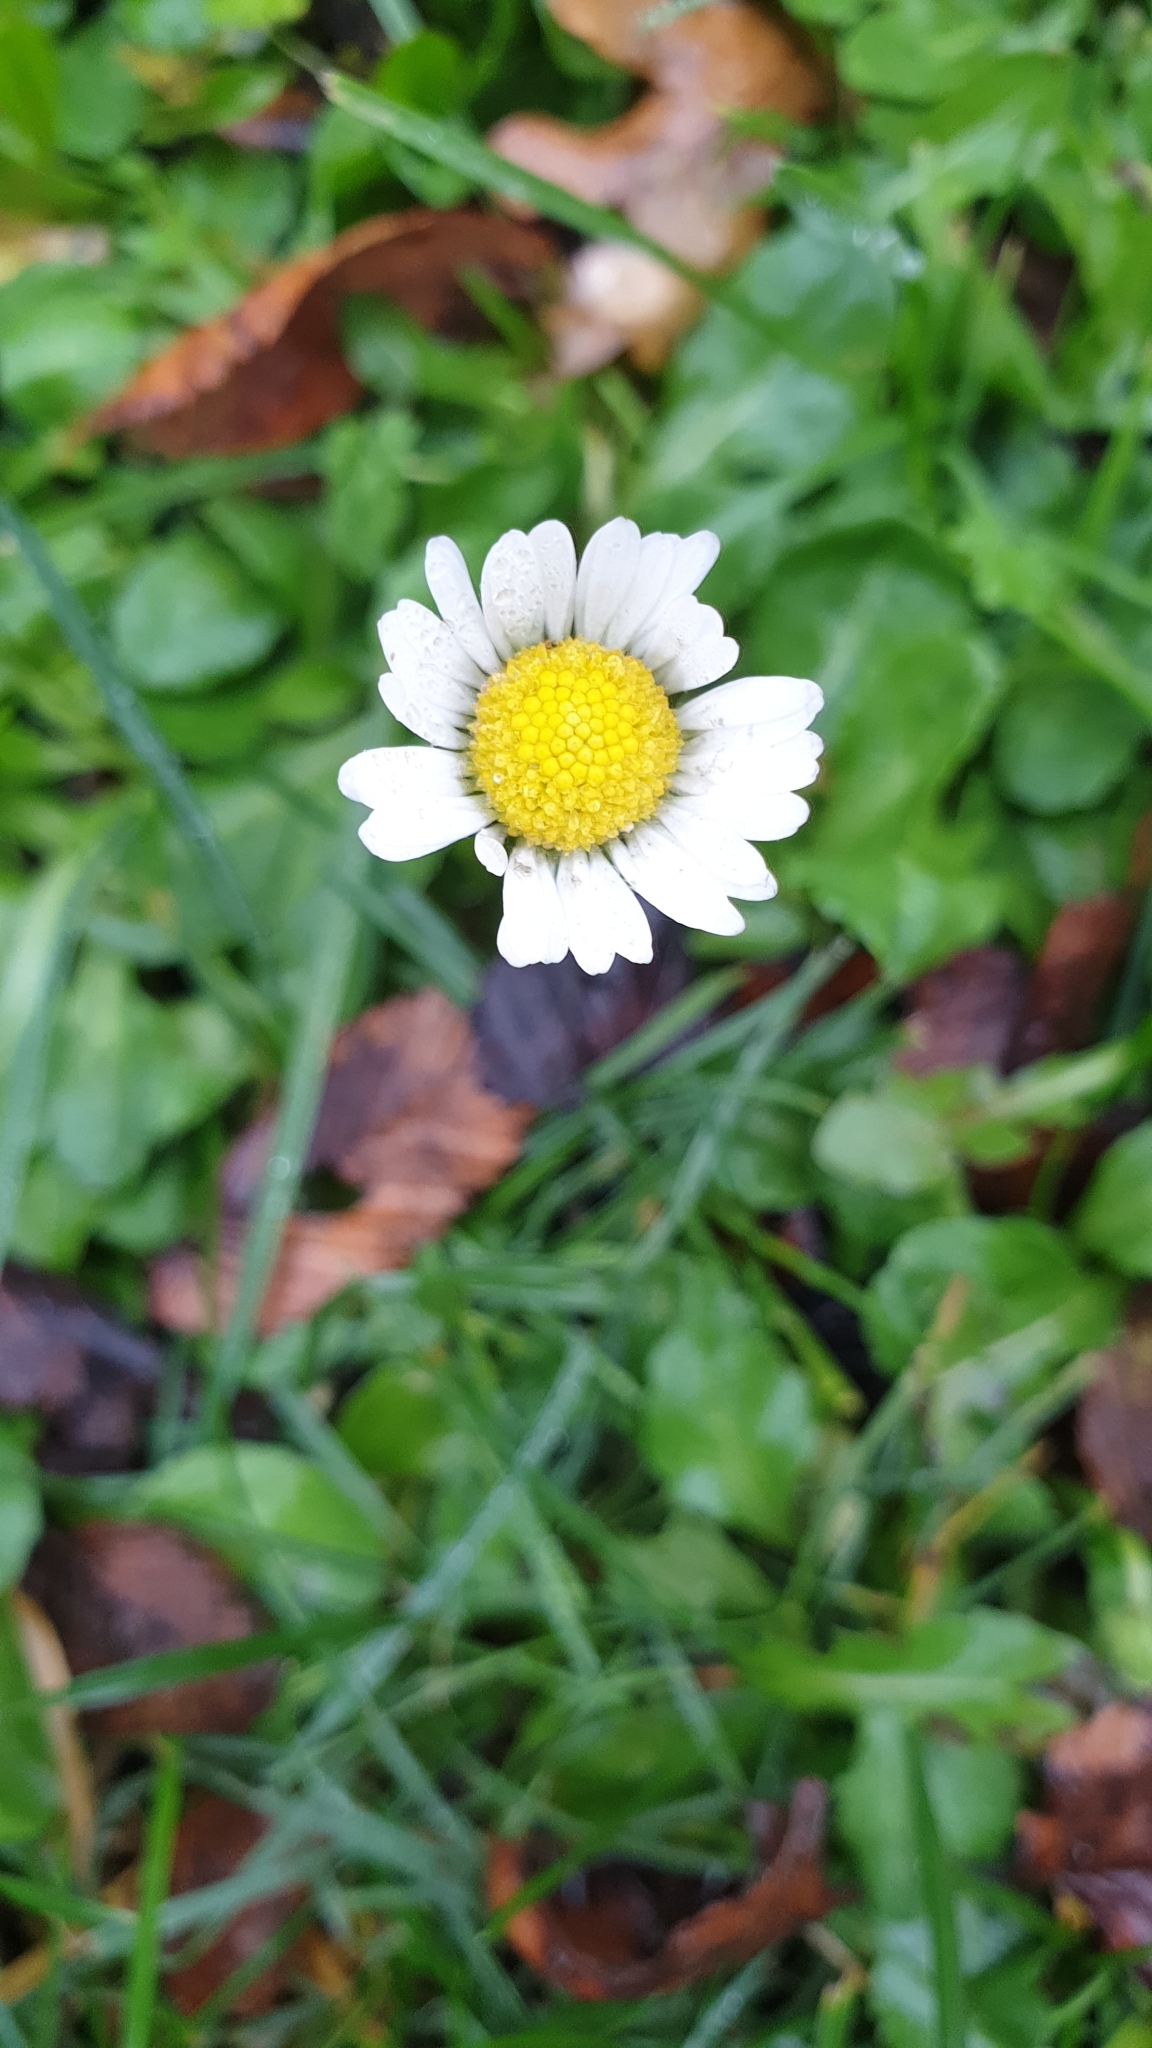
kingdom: Plantae
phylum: Tracheophyta
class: Magnoliopsida
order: Asterales
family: Asteraceae
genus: Bellis
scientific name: Bellis perennis
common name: Lawndaisy
